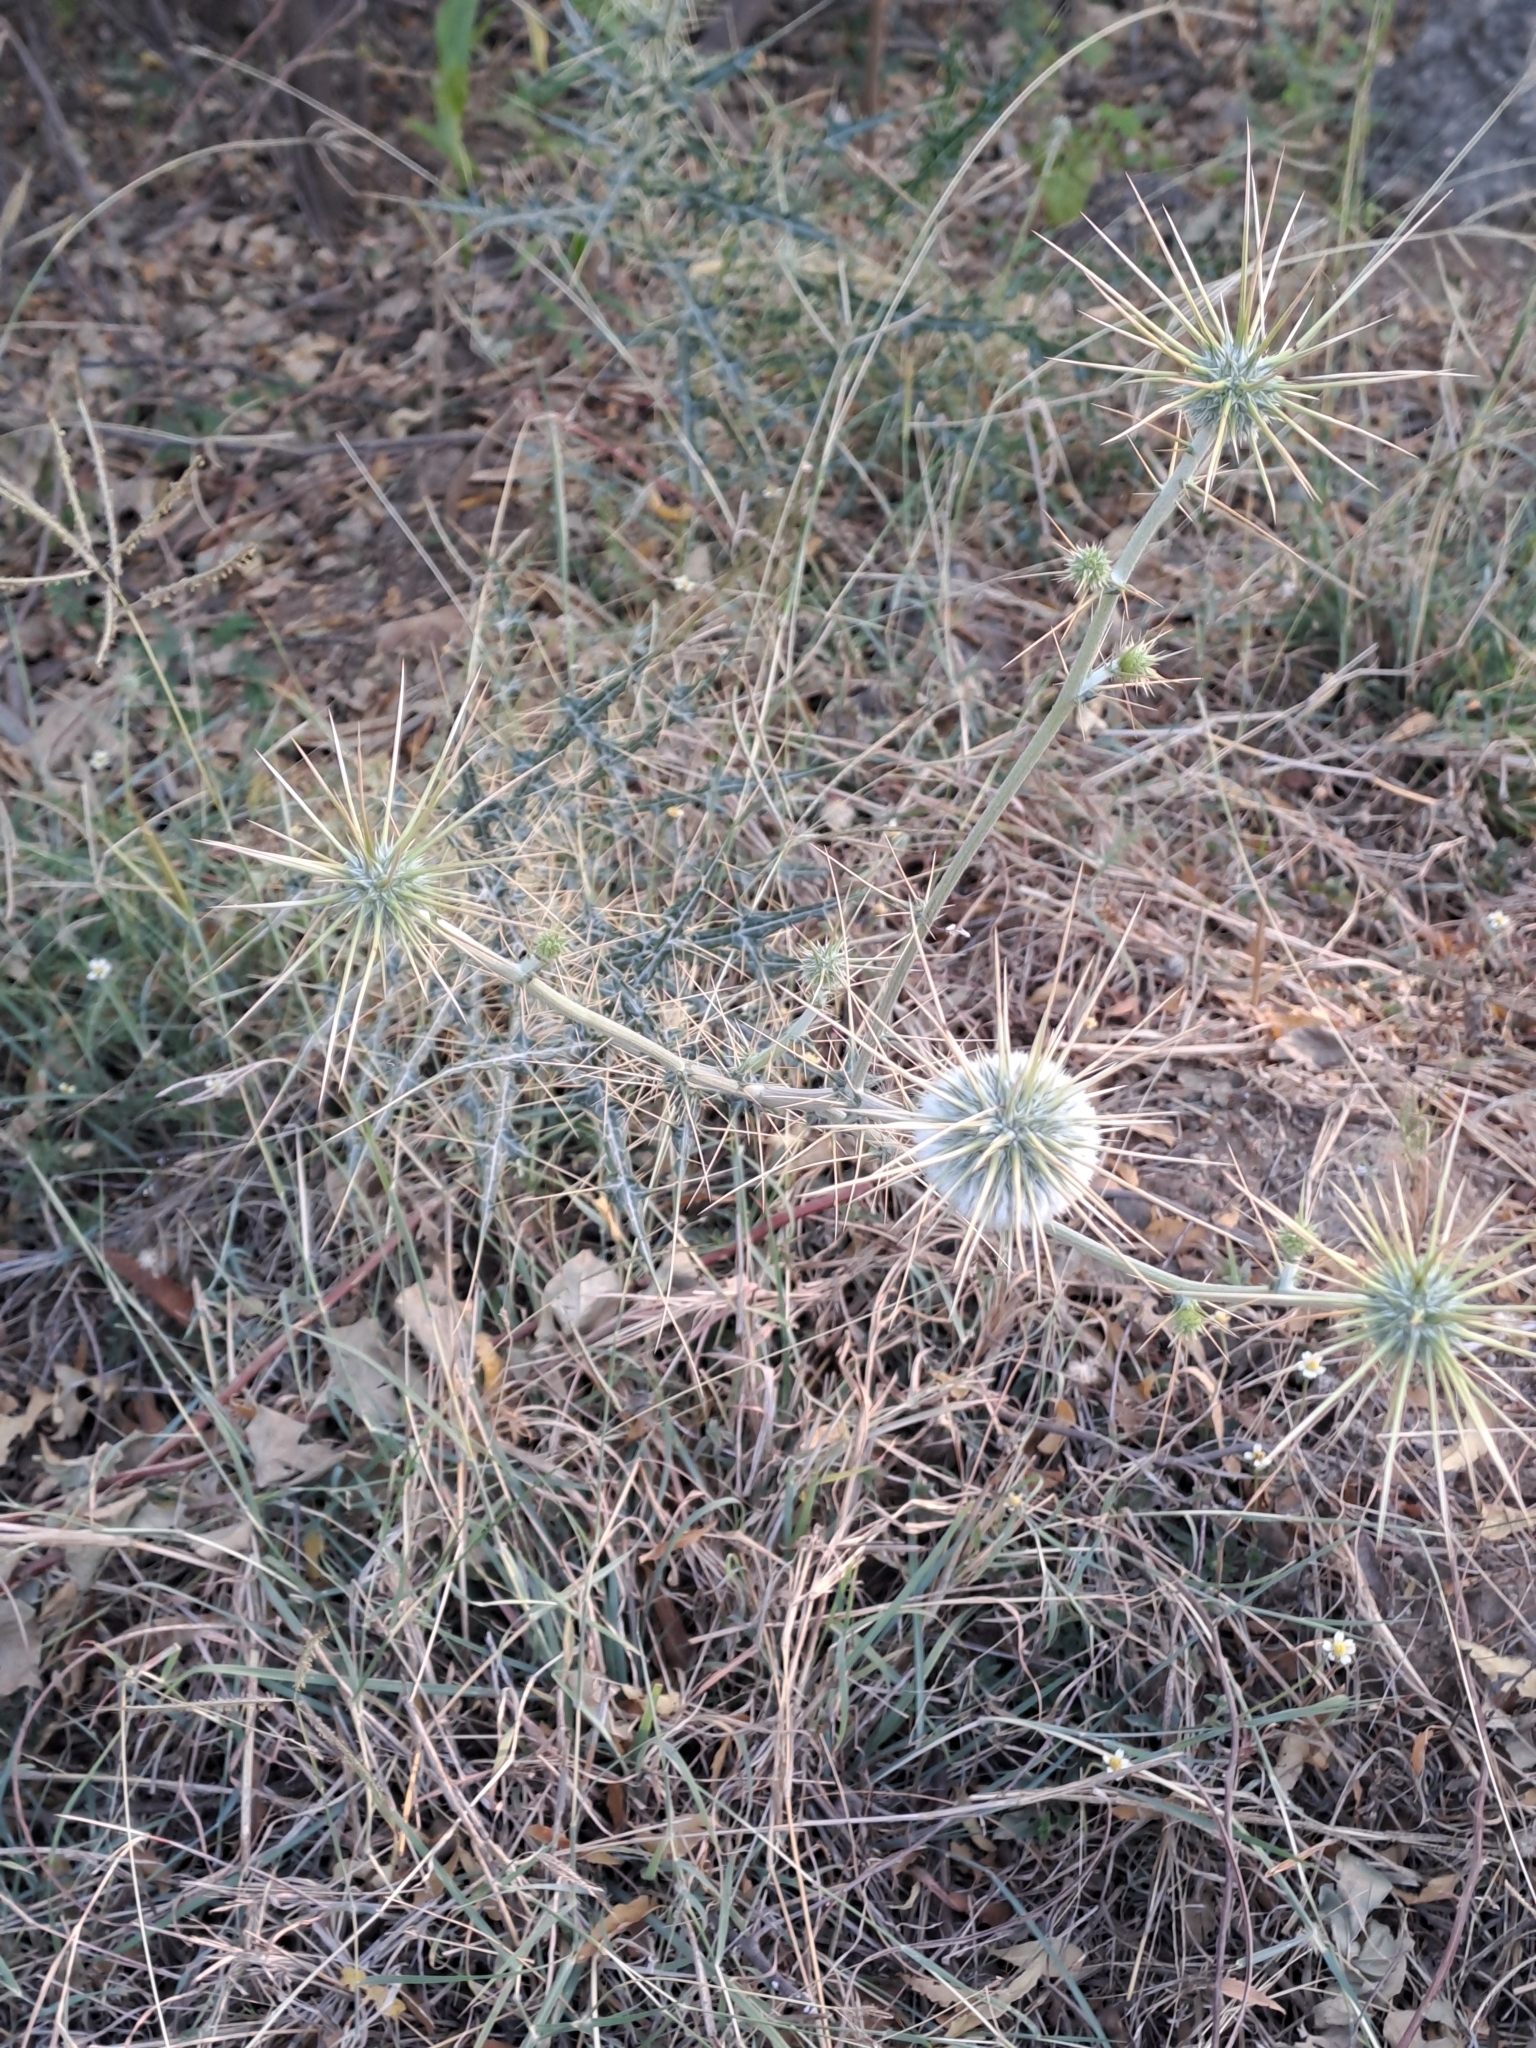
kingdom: Plantae
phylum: Tracheophyta
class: Magnoliopsida
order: Asterales
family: Asteraceae
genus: Echinops
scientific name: Echinops echinatus
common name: Indian globe thistle
